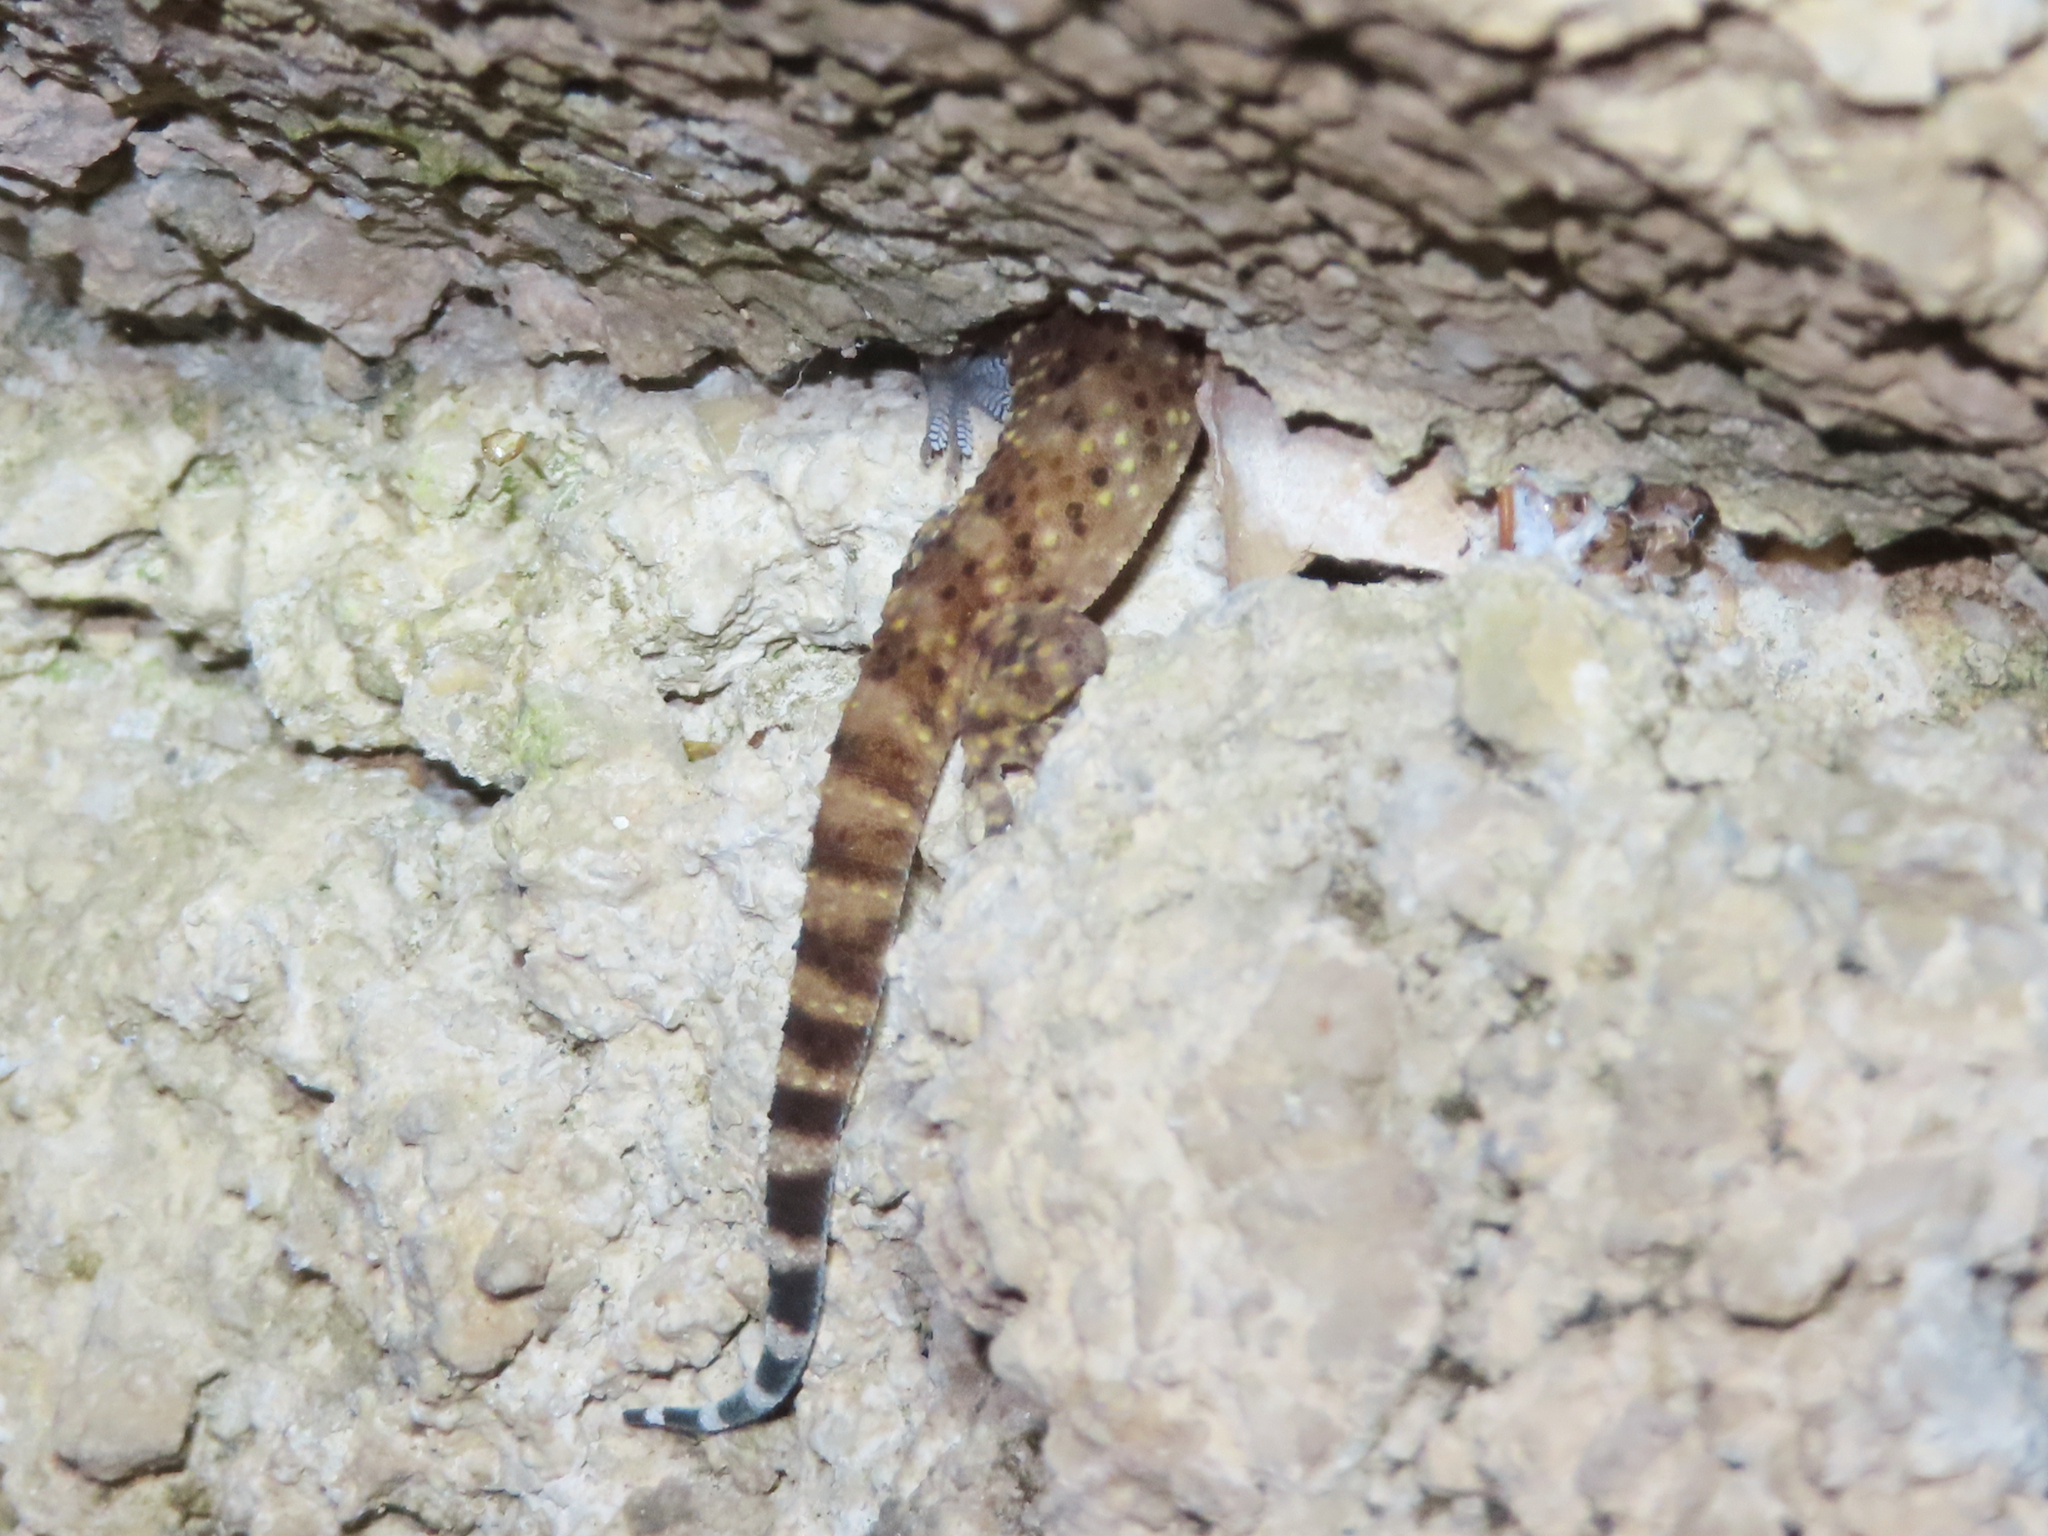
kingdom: Animalia
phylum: Chordata
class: Squamata
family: Gekkonidae
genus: Hemidactylus
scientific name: Hemidactylus turcicus
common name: Turkish gecko
